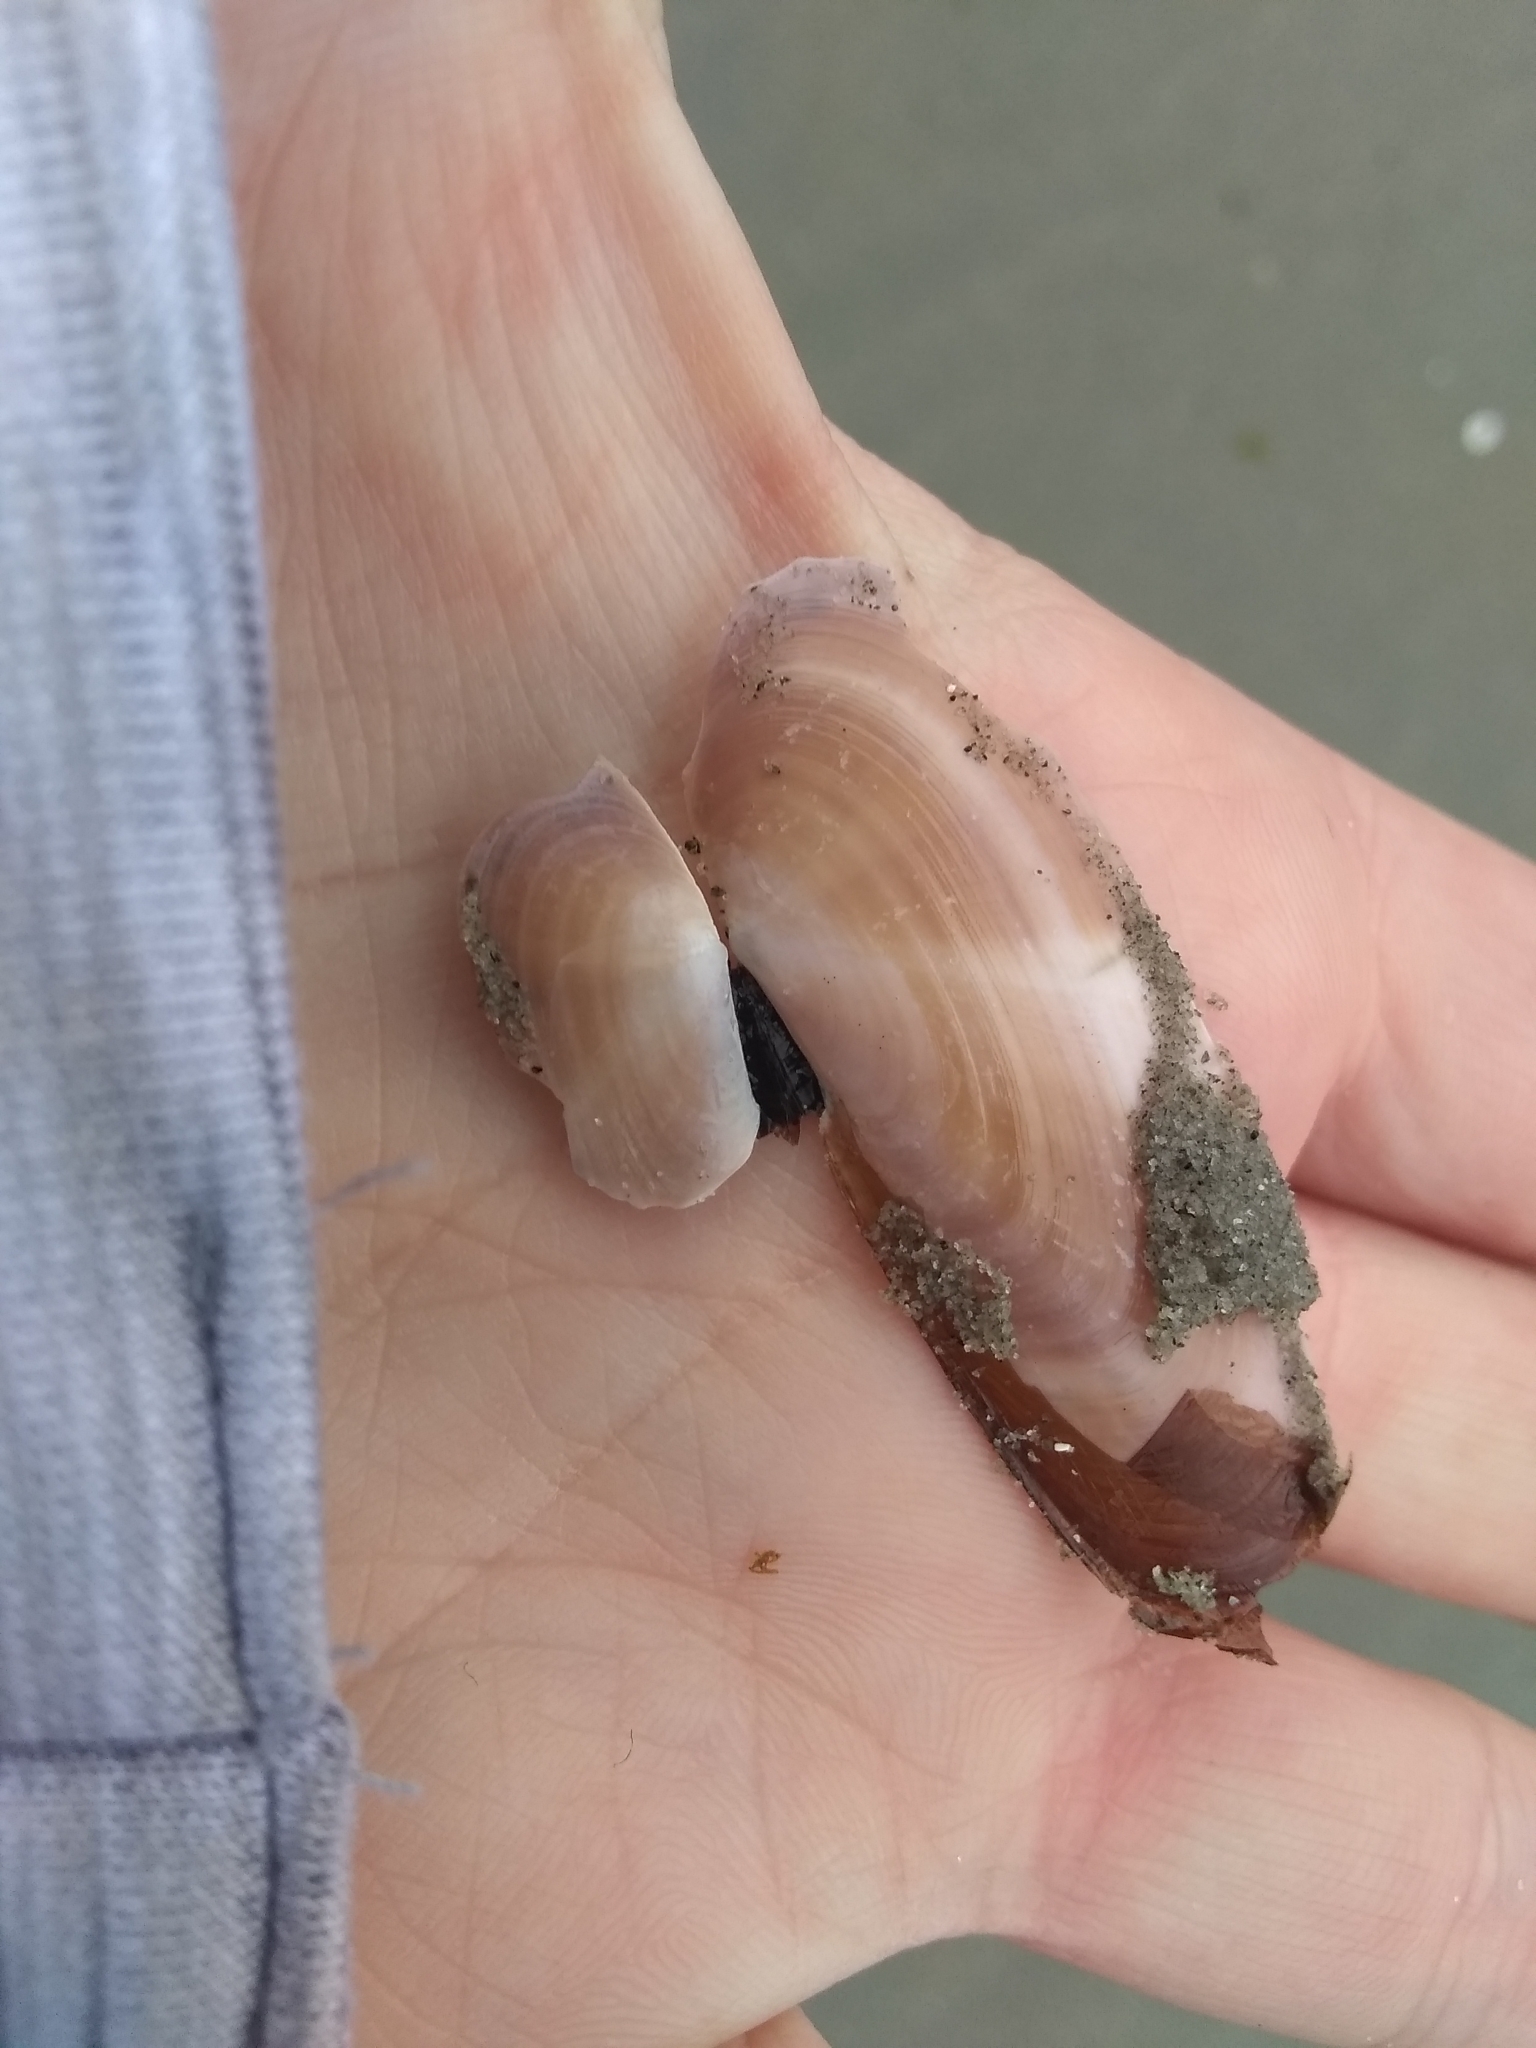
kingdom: Animalia
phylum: Mollusca
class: Bivalvia
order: Adapedonta
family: Pharidae
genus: Siliqua
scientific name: Siliqua costata
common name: Atlantic razor
